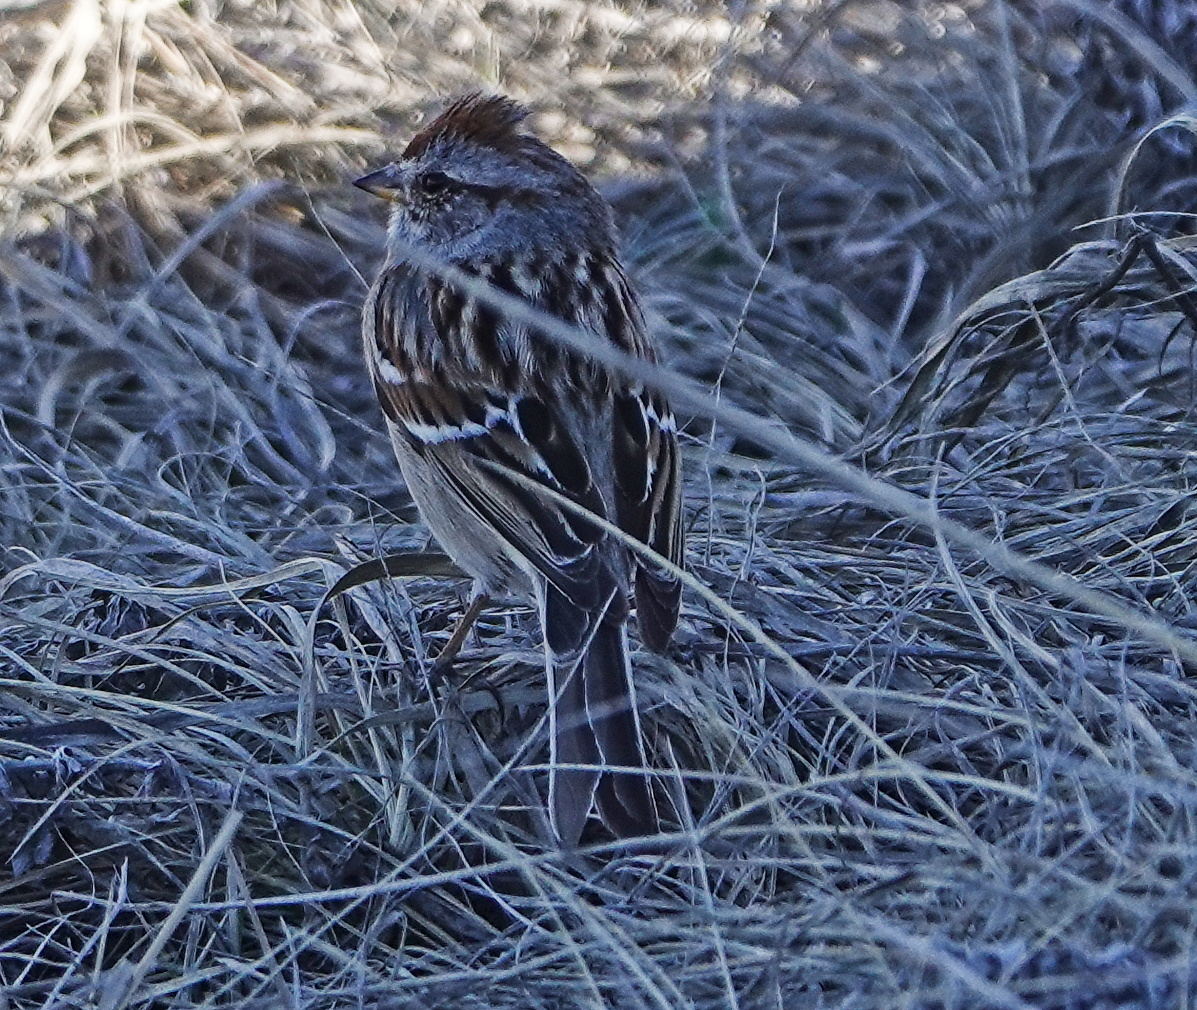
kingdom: Animalia
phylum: Chordata
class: Aves
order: Passeriformes
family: Passerellidae
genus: Spizelloides
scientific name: Spizelloides arborea
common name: American tree sparrow
